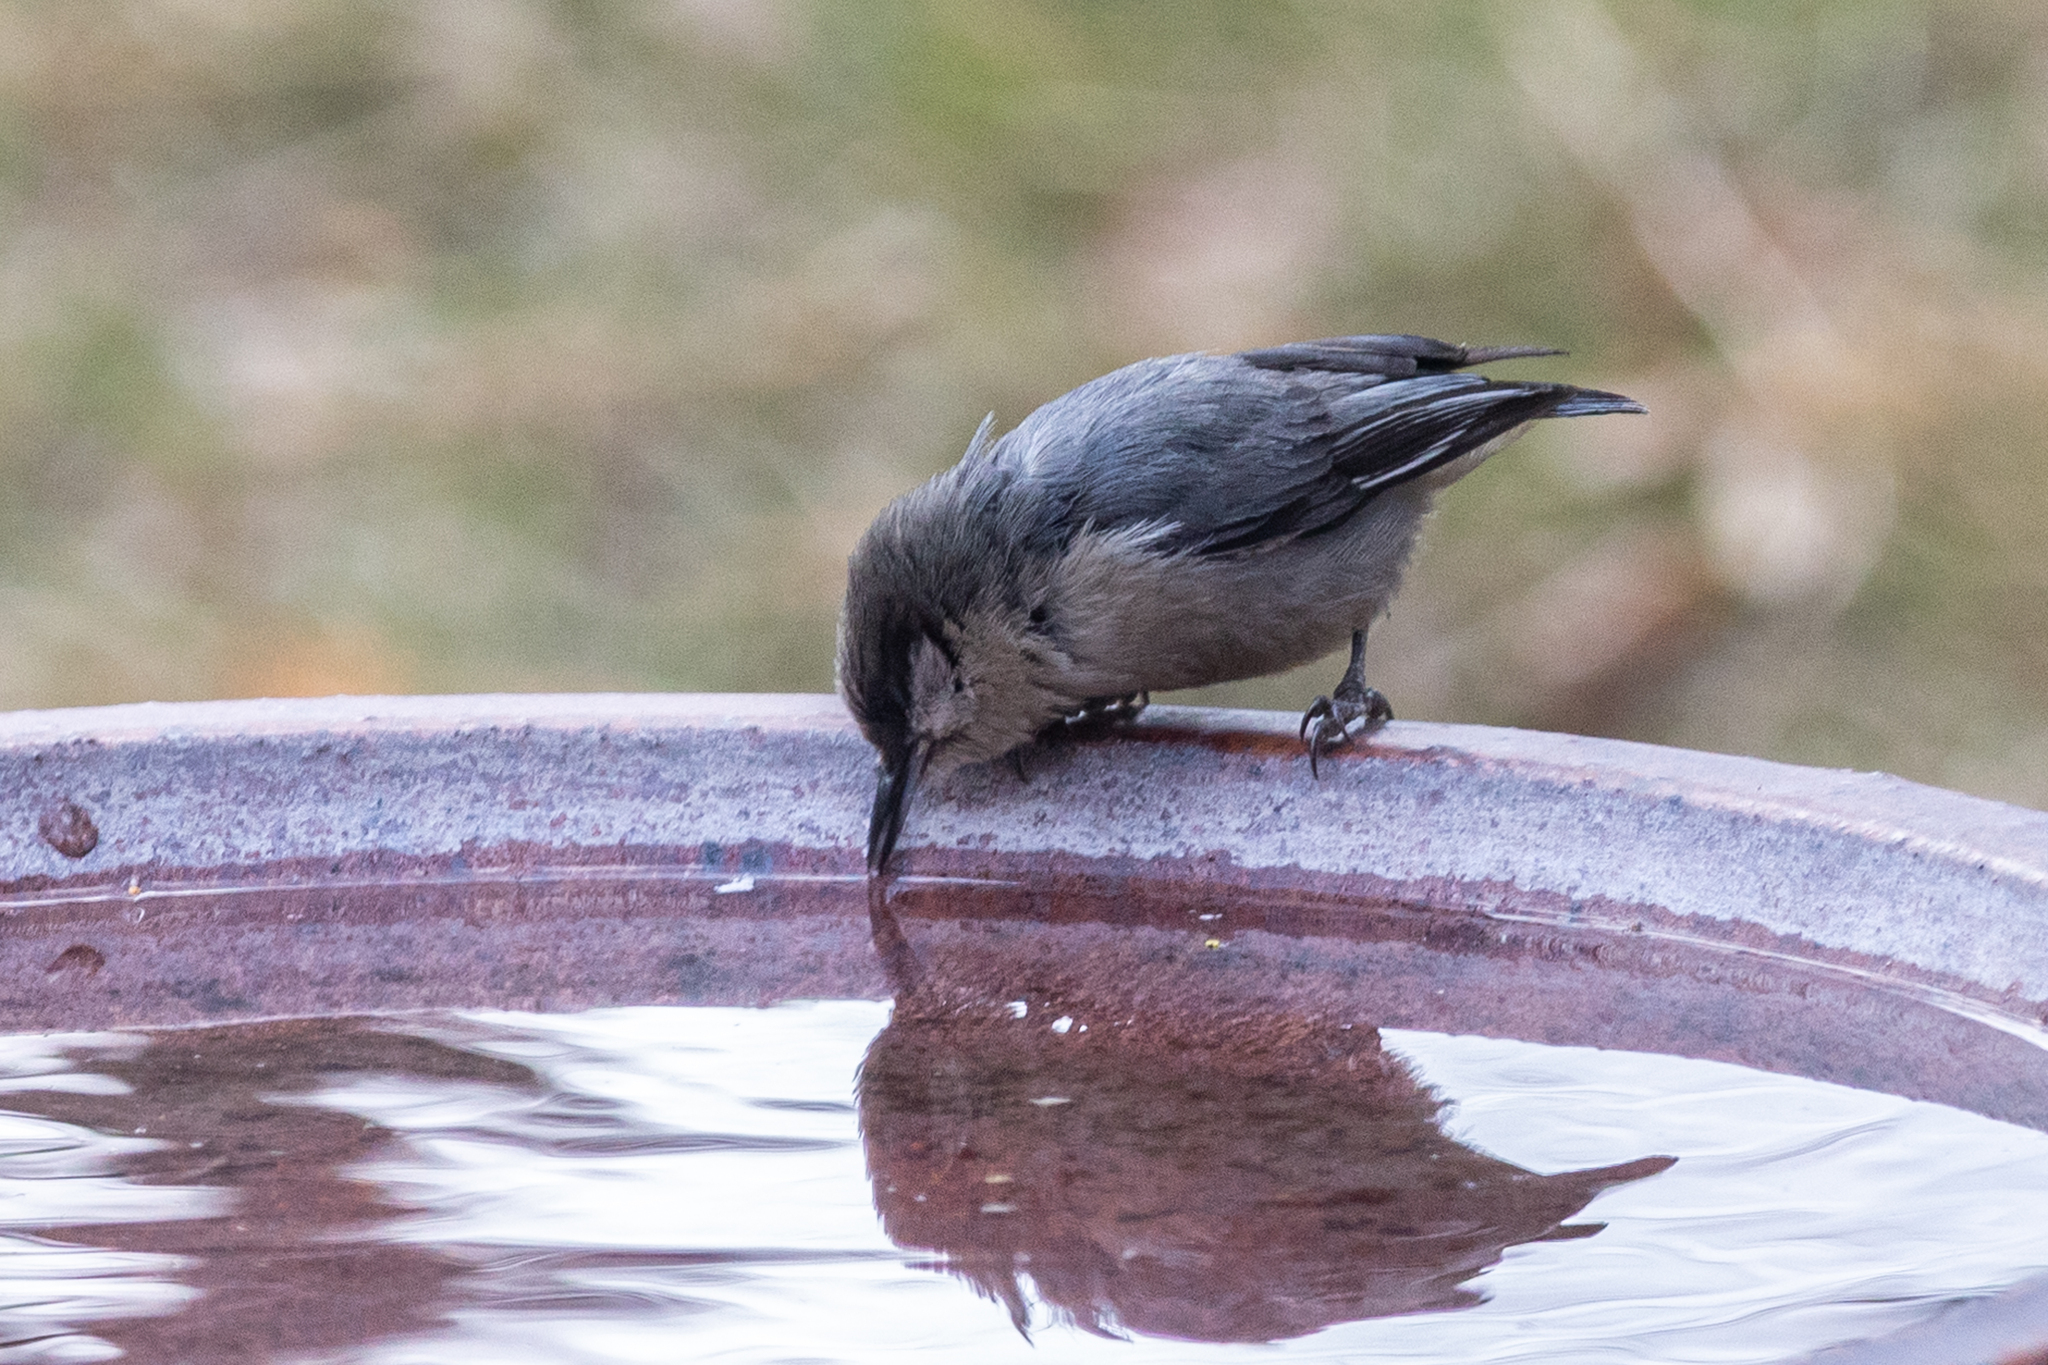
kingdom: Animalia
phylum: Chordata
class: Aves
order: Passeriformes
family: Sittidae
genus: Sitta
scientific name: Sitta pygmaea
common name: Pygmy nuthatch
